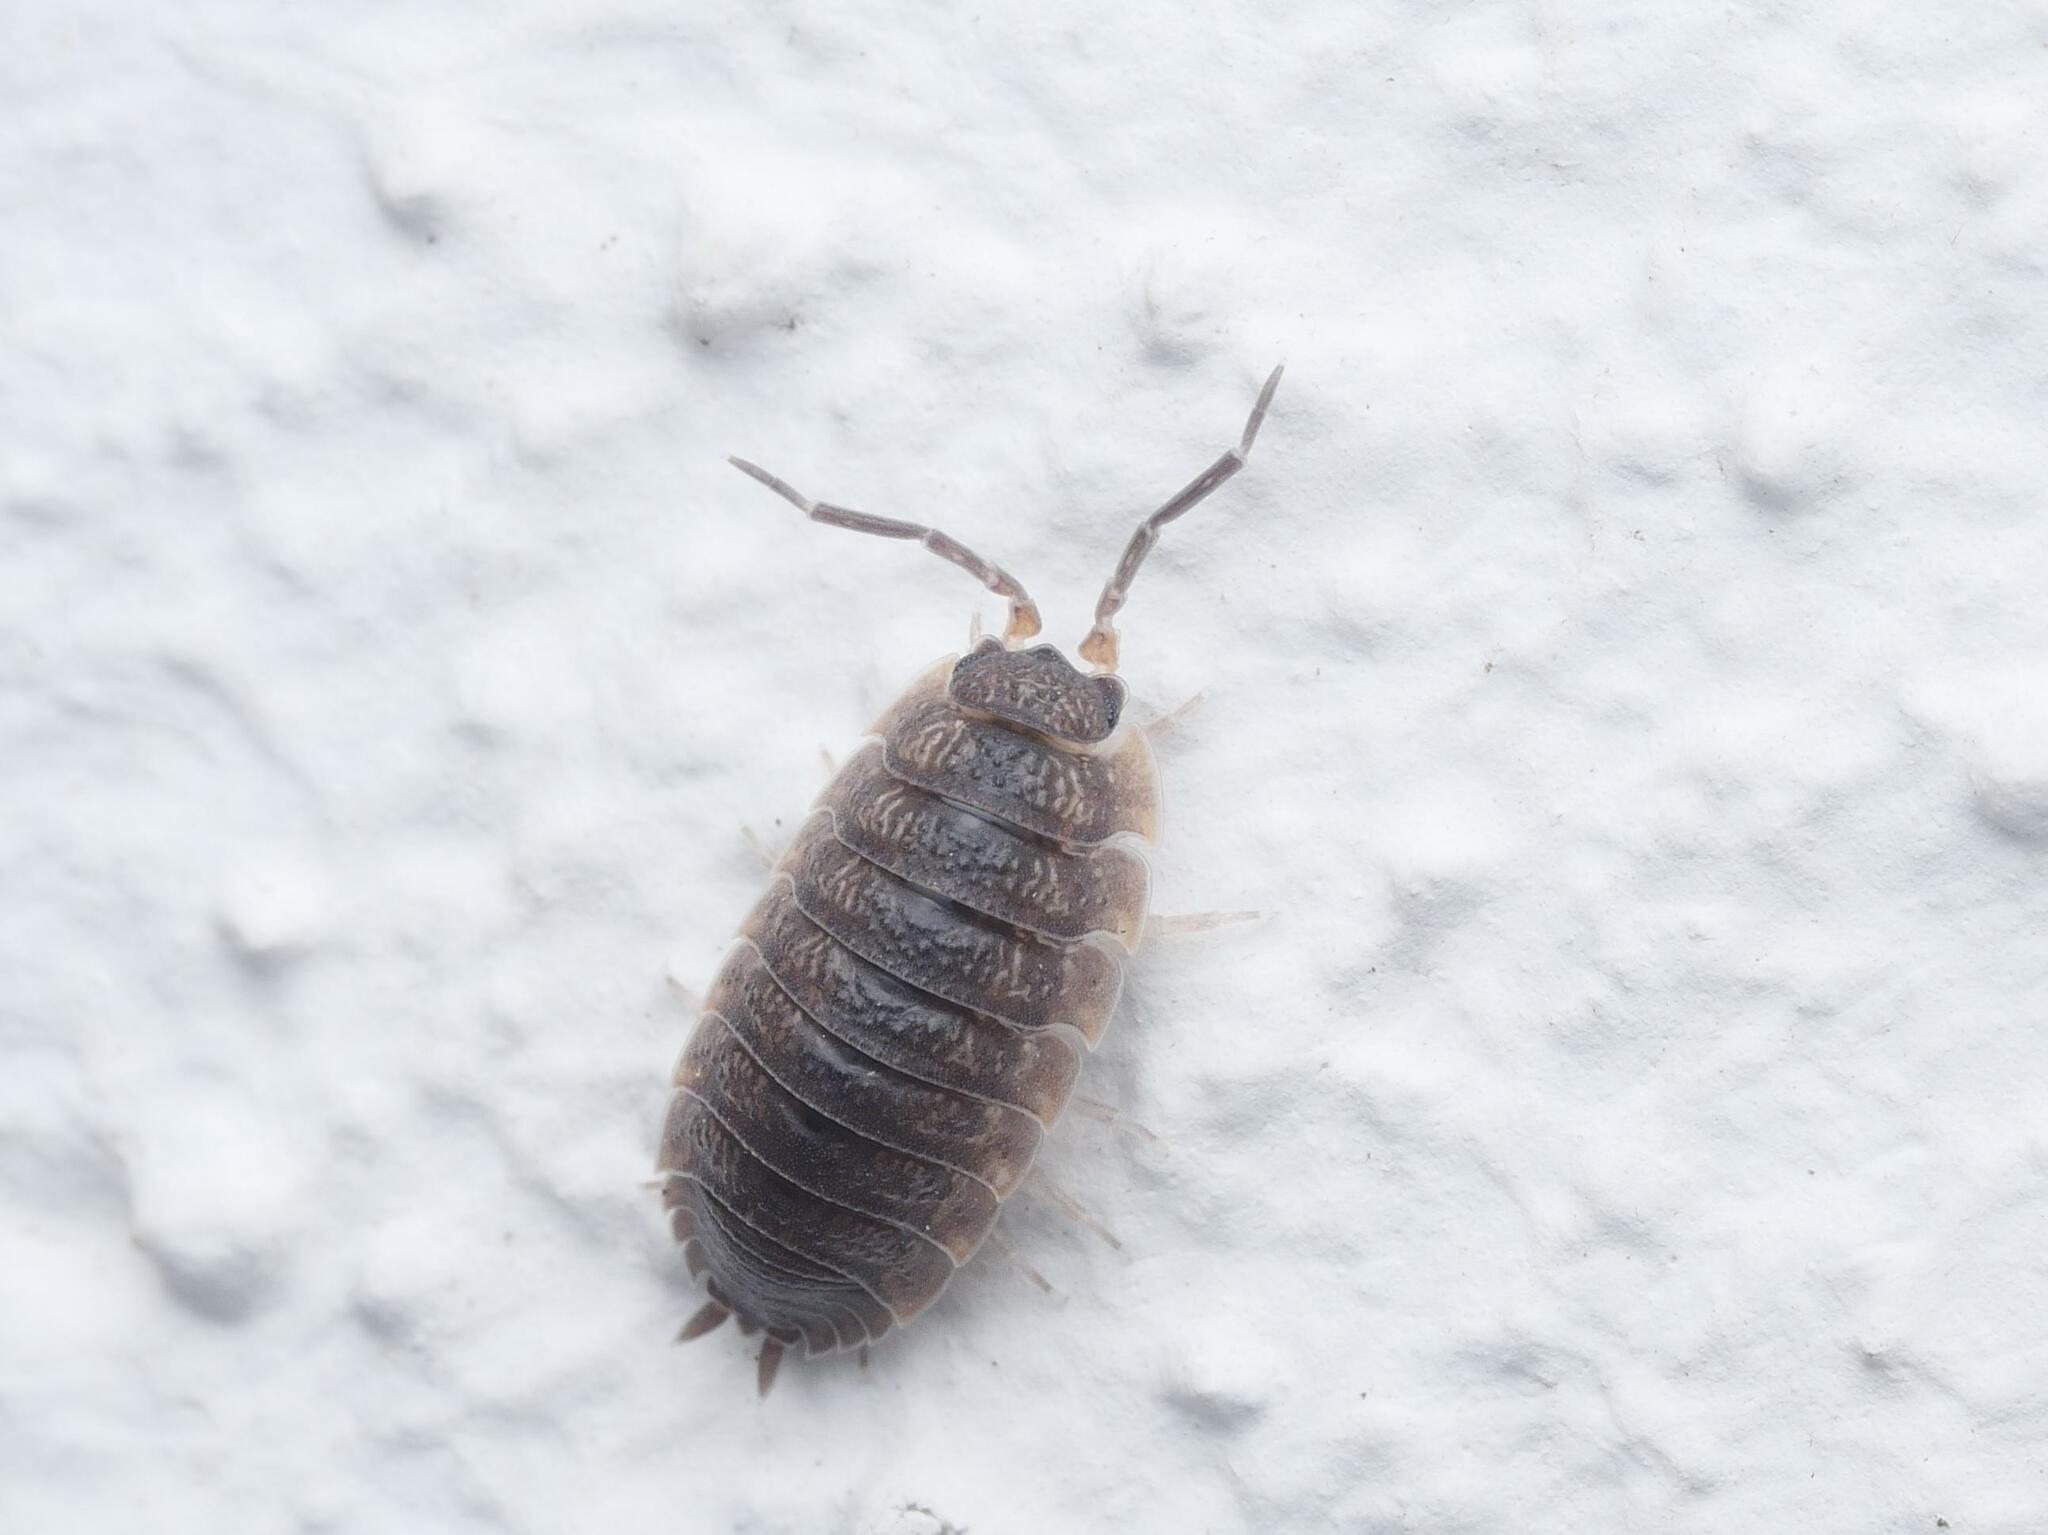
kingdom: Animalia
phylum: Arthropoda
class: Malacostraca
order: Isopoda
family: Porcellionidae
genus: Porcellio
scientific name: Porcellio scaber
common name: Common rough woodlouse
